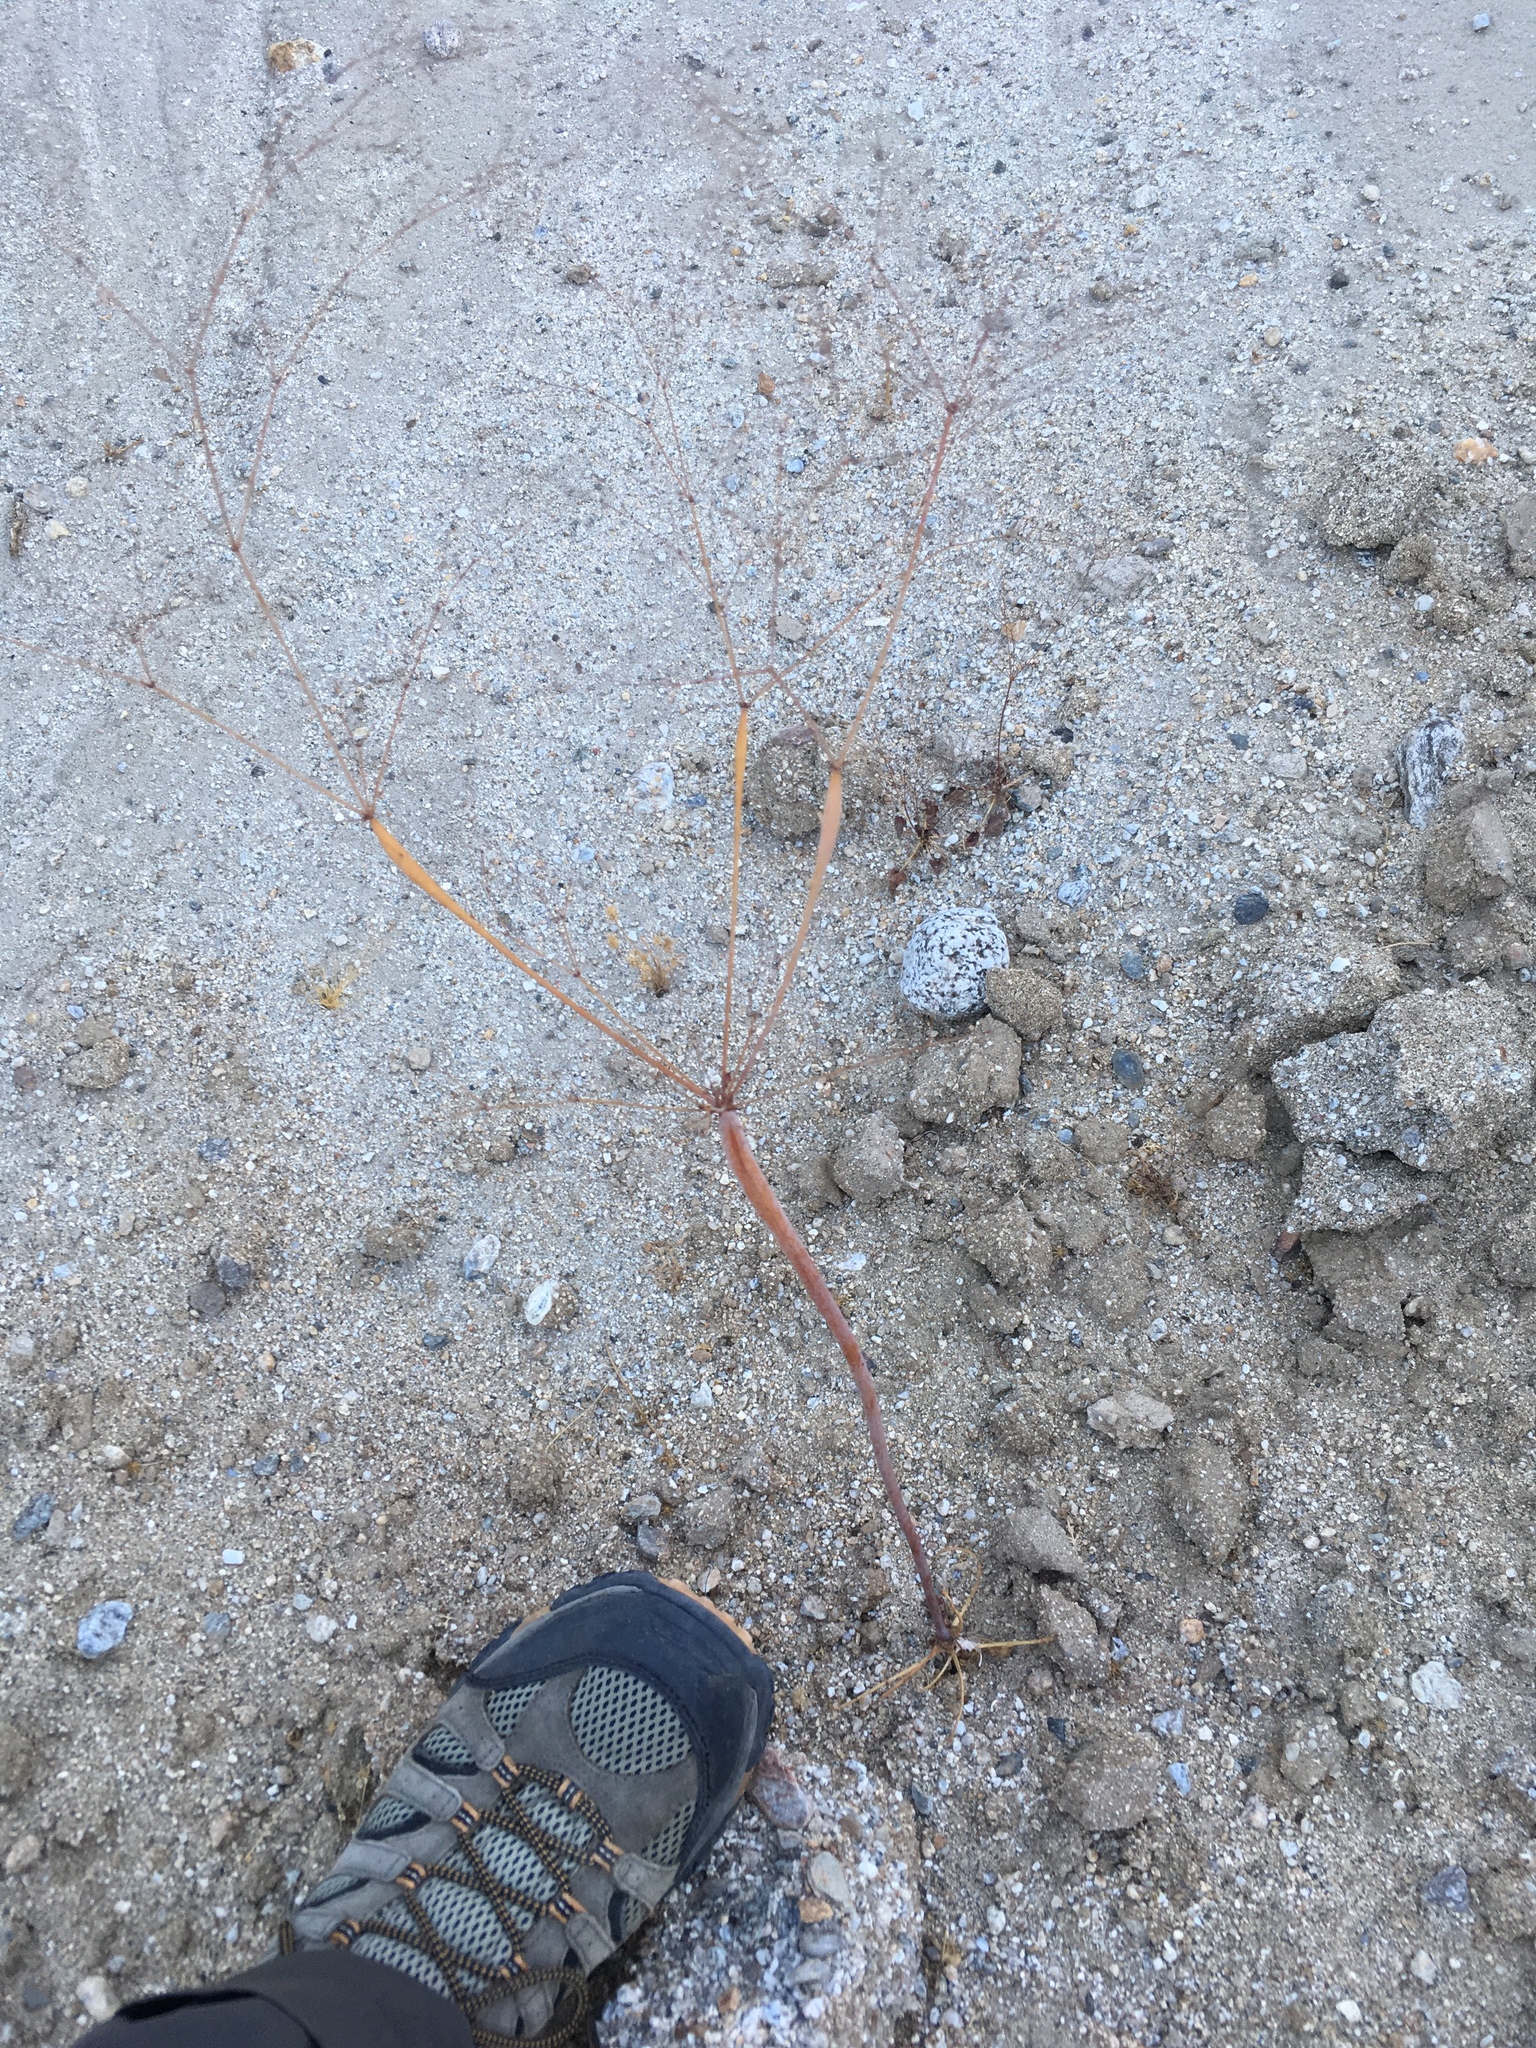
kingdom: Plantae
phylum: Tracheophyta
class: Magnoliopsida
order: Caryophyllales
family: Polygonaceae
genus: Eriogonum
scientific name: Eriogonum trichopes
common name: Little desert trumpet
